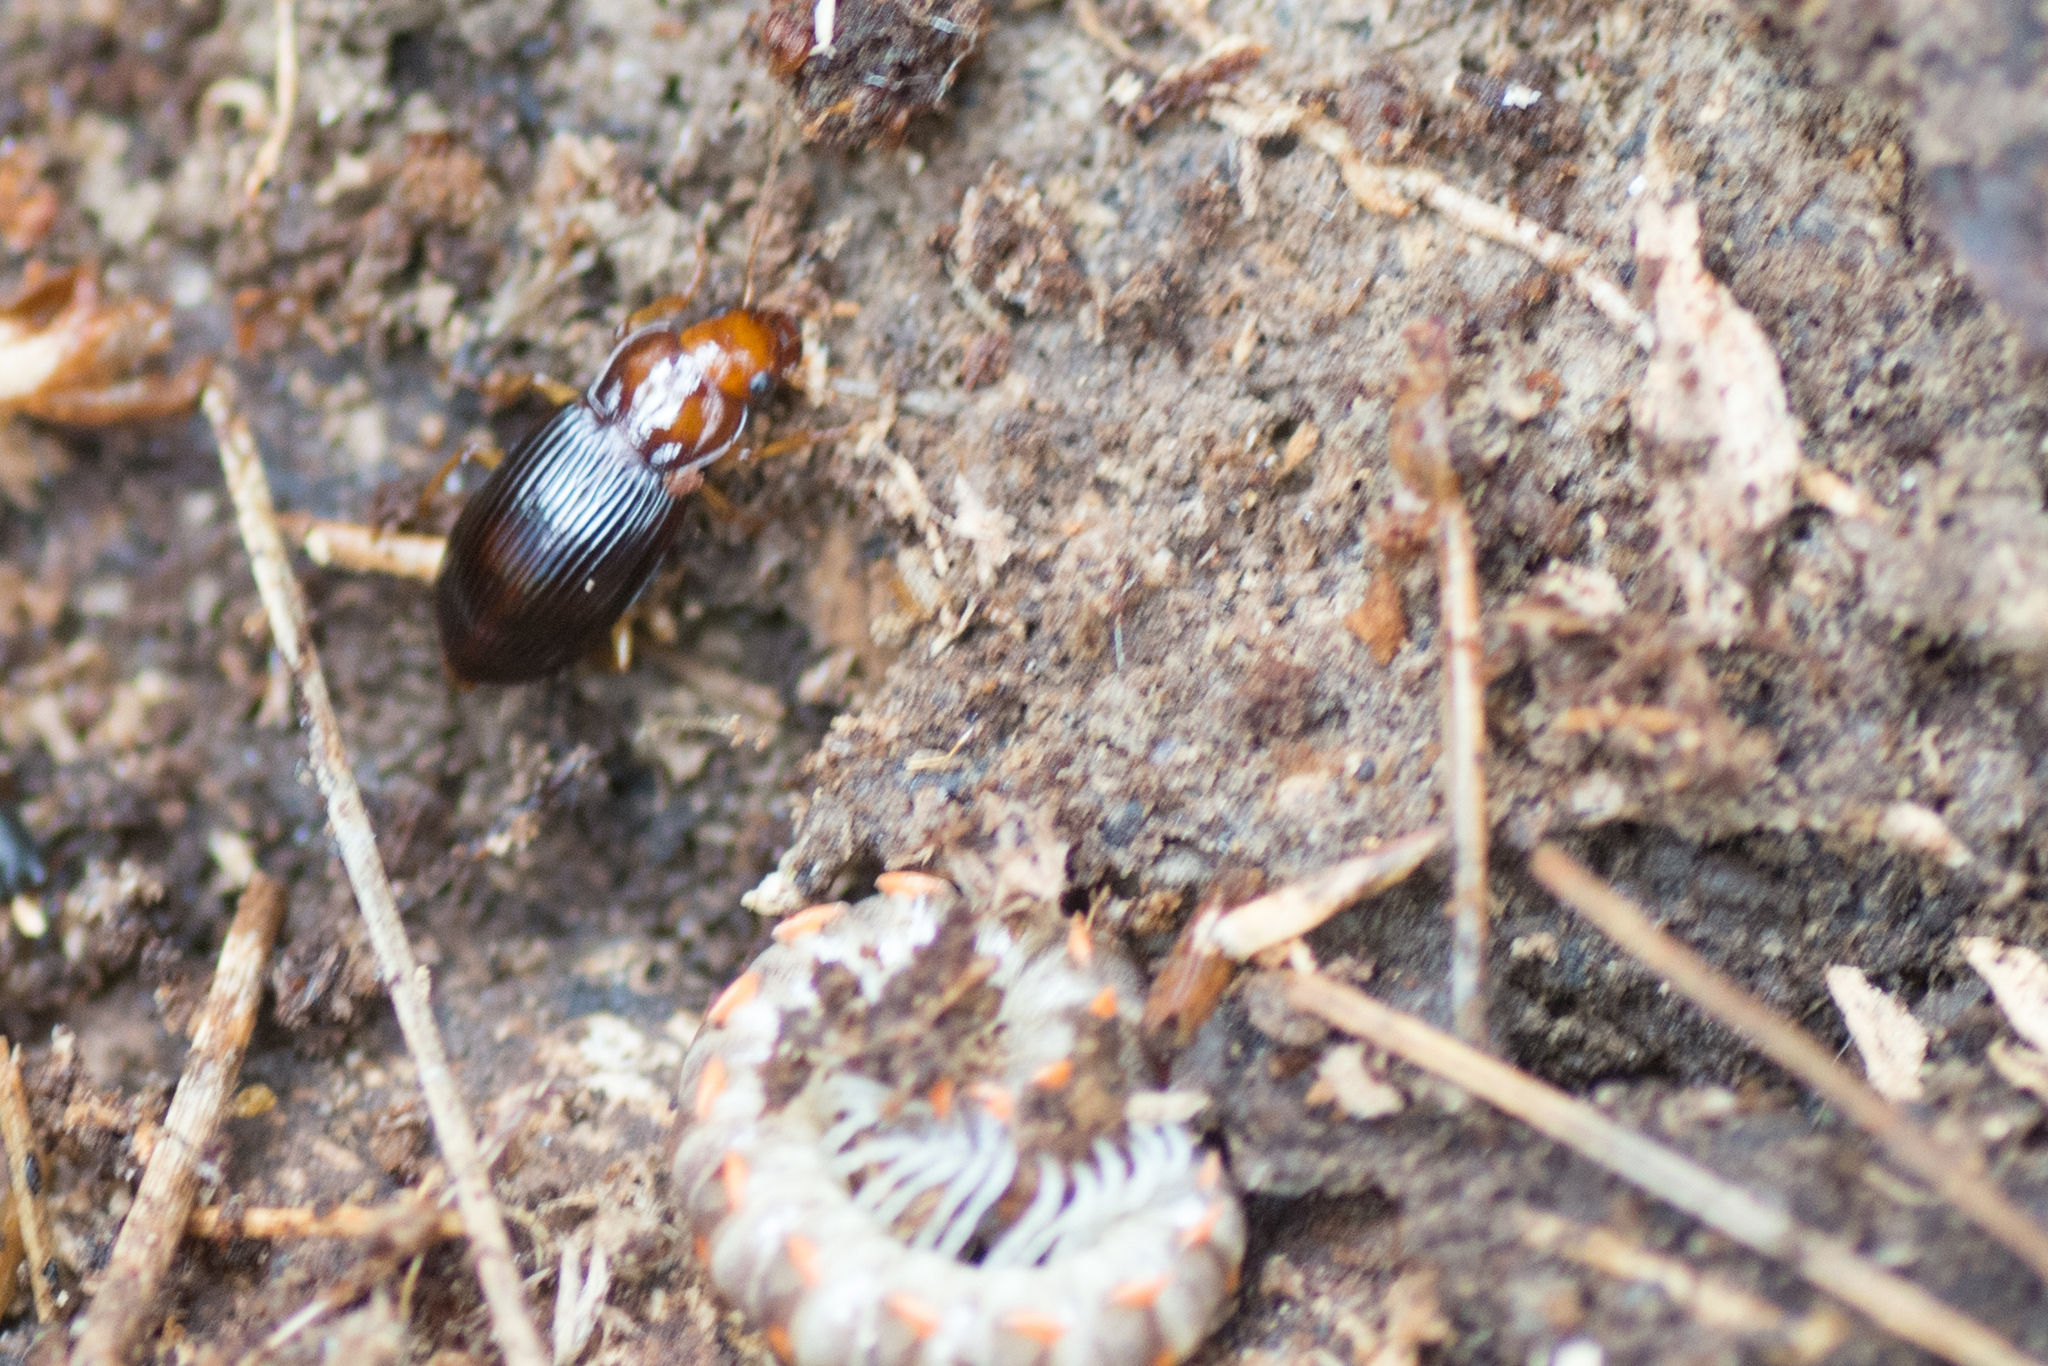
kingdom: Animalia
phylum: Arthropoda
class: Insecta
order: Coleoptera
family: Carabidae
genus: Trichotichnus
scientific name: Trichotichnus vulpeculus
